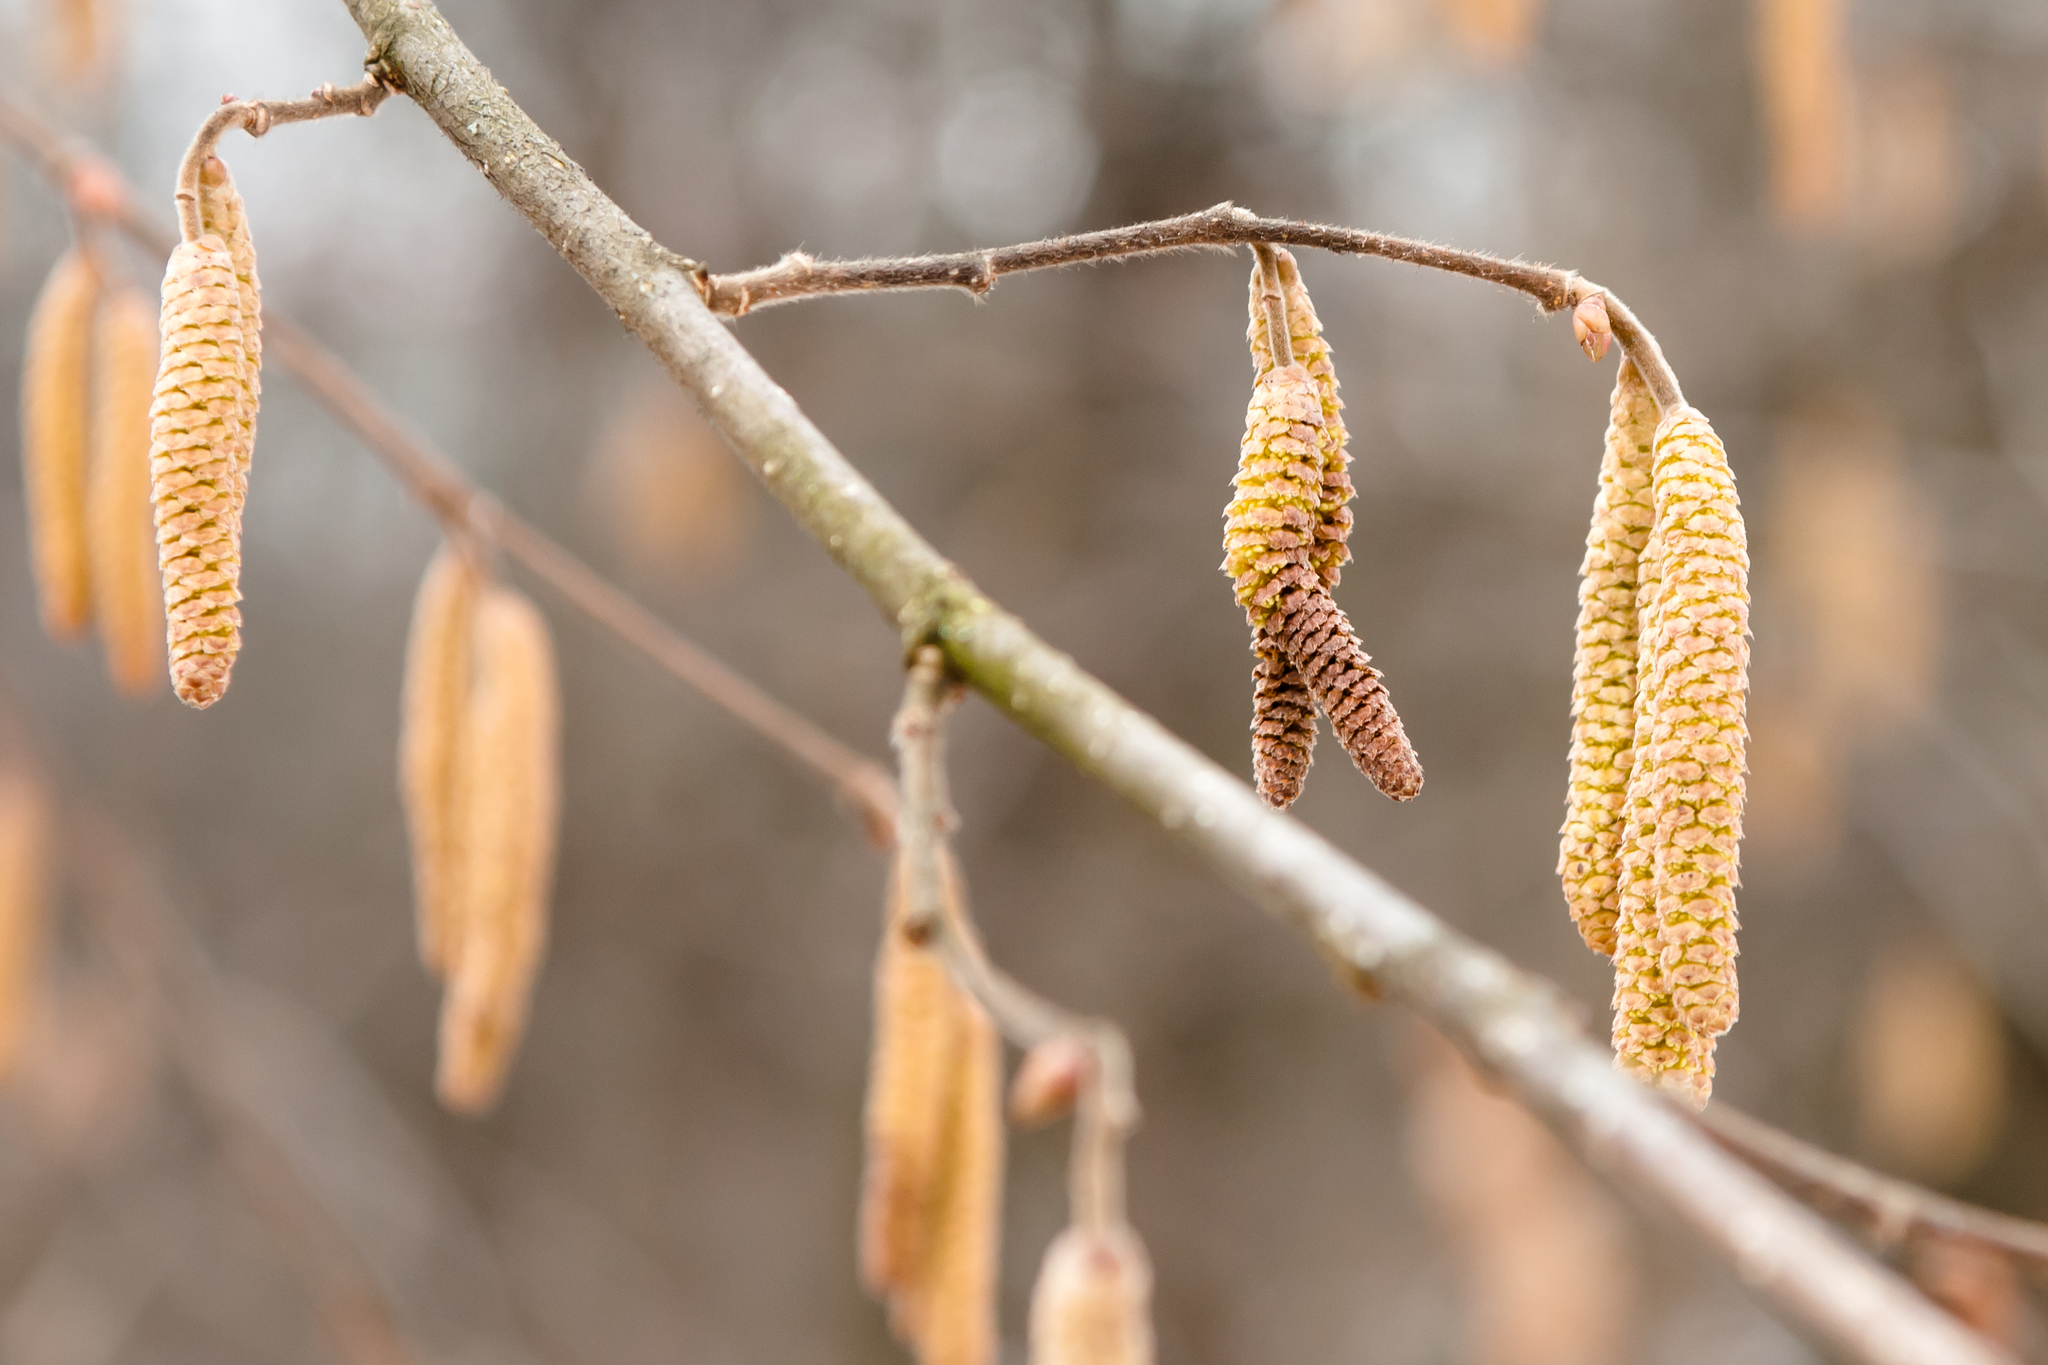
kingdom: Plantae
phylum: Tracheophyta
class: Magnoliopsida
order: Fagales
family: Betulaceae
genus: Corylus
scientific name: Corylus avellana
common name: European hazel
